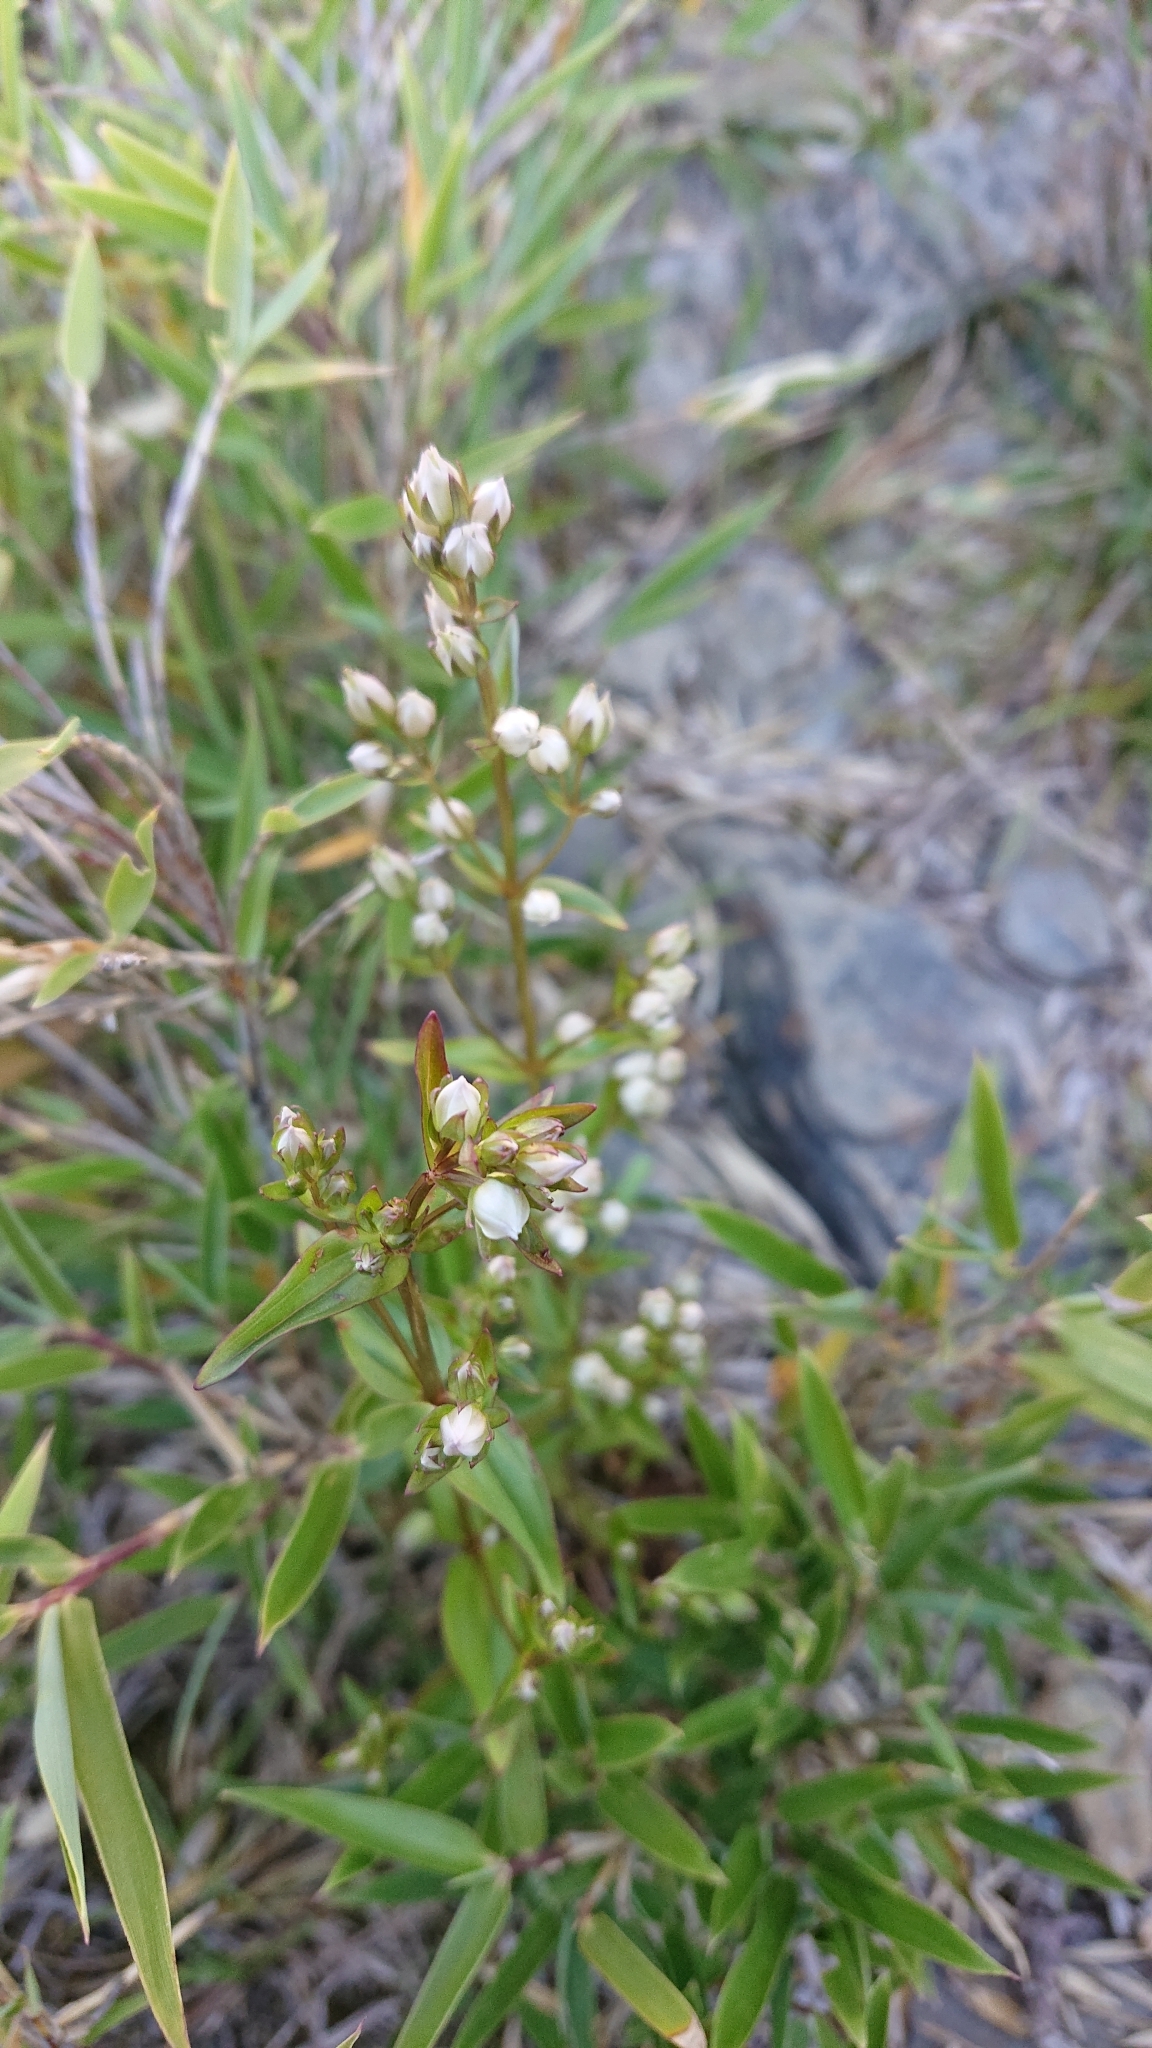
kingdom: Plantae
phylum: Tracheophyta
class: Magnoliopsida
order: Gentianales
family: Gentianaceae
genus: Swertia
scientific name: Swertia macrosperma
